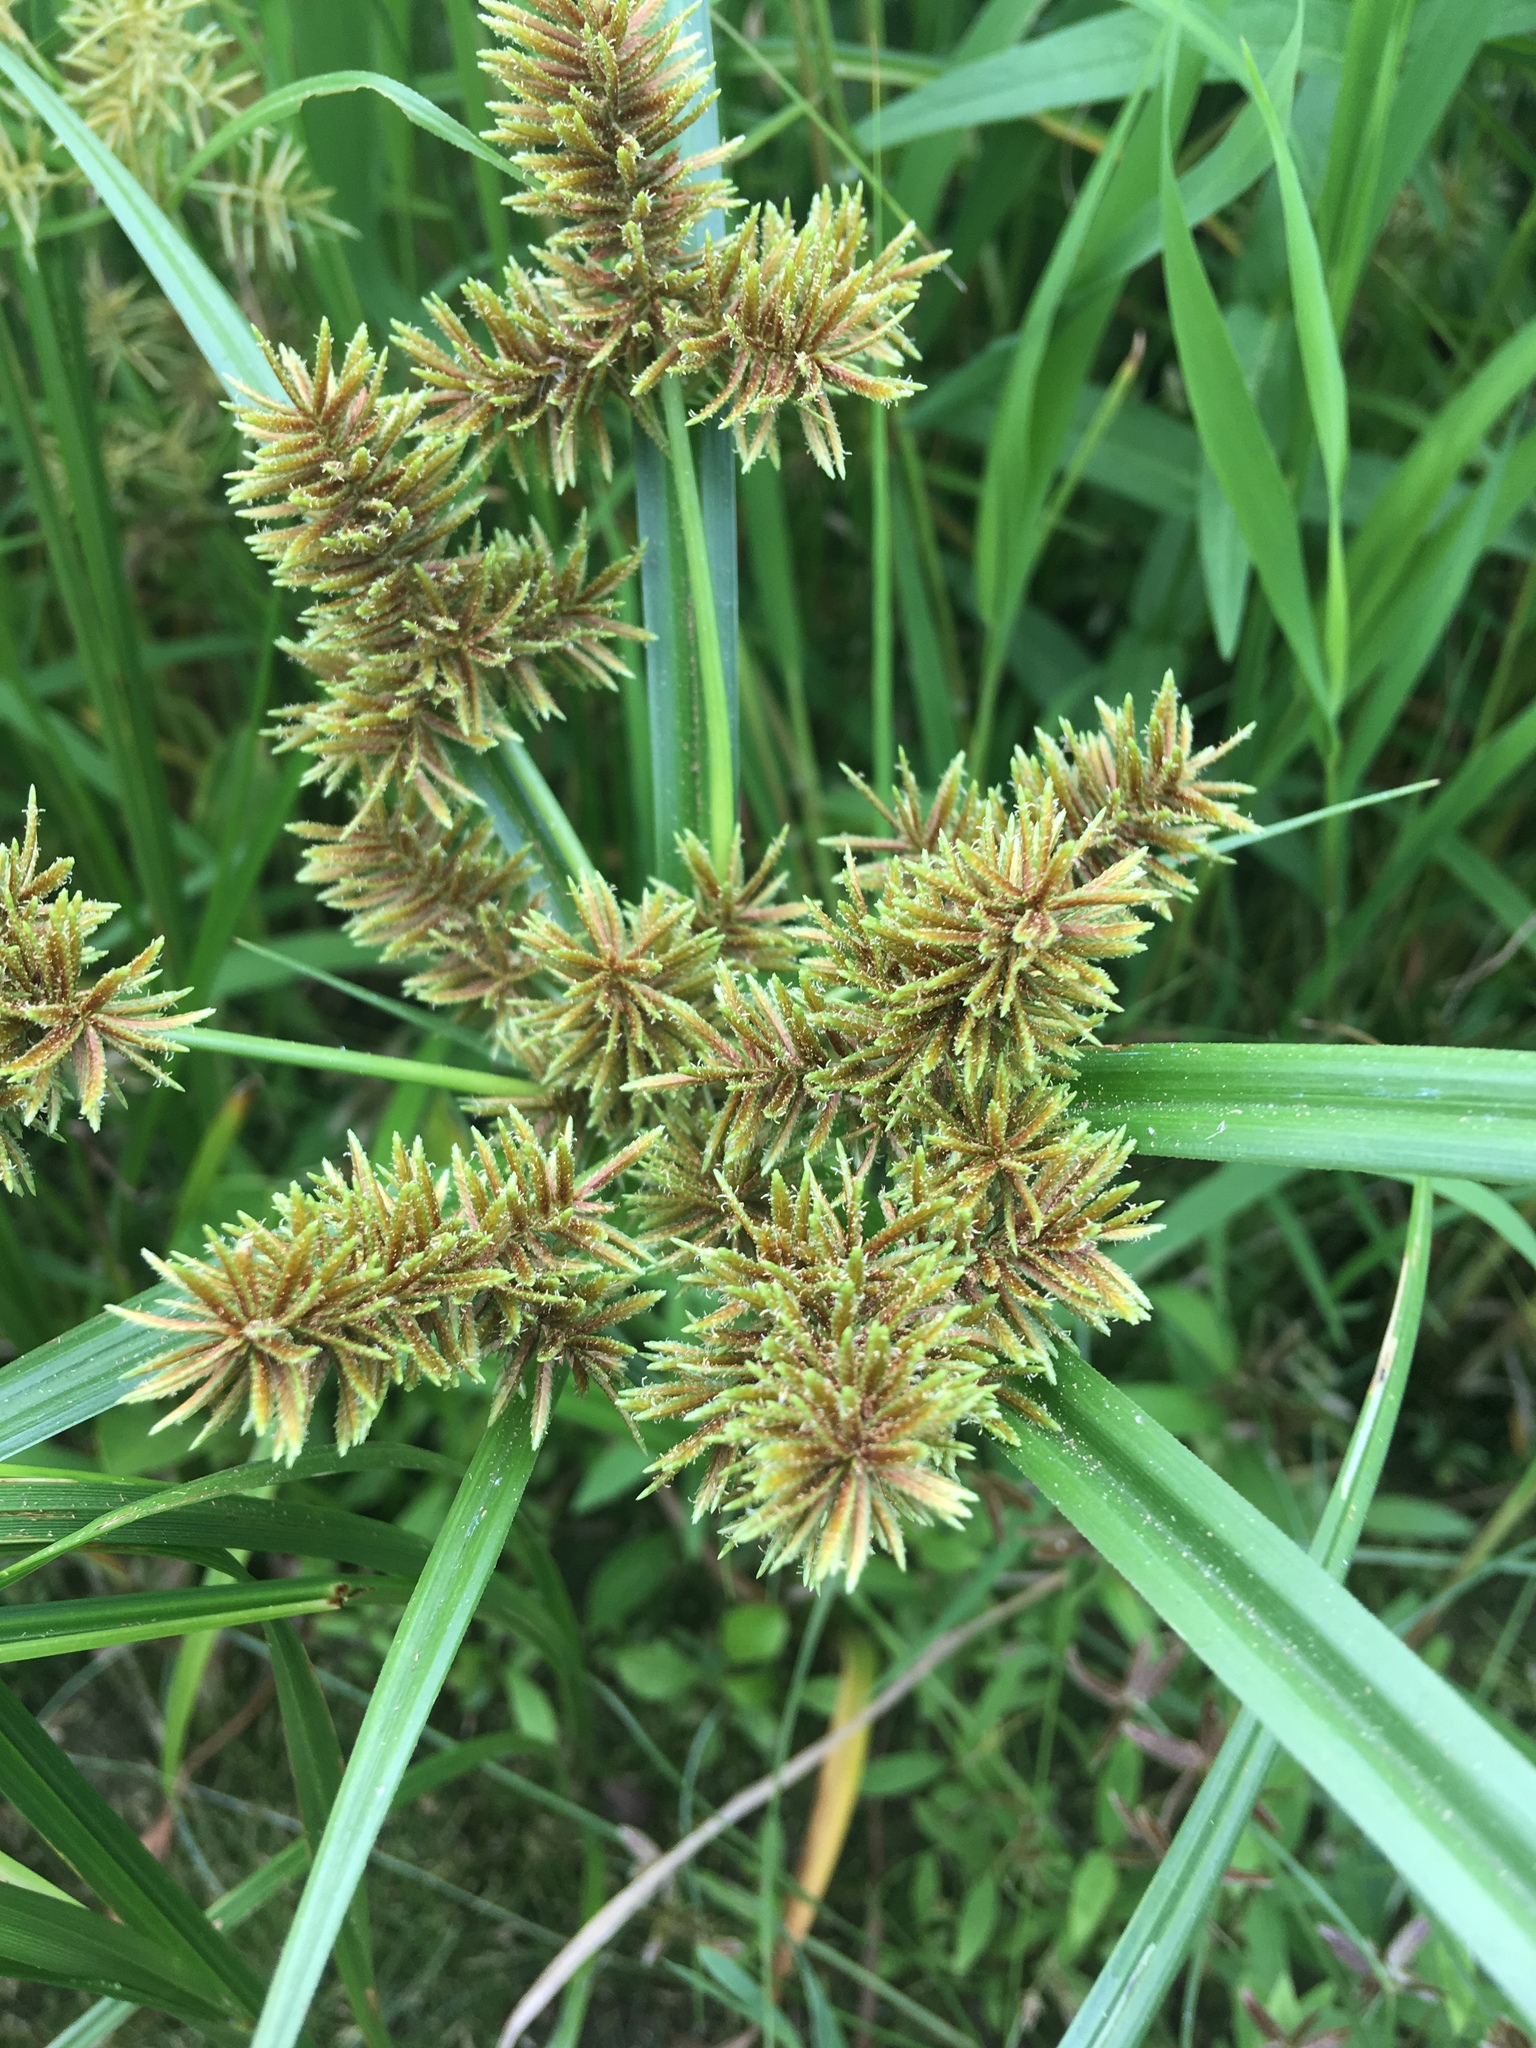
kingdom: Plantae
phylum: Tracheophyta
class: Liliopsida
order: Poales
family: Cyperaceae
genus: Cyperus
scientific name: Cyperus erythrorhizos
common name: Red-root flat sedge
